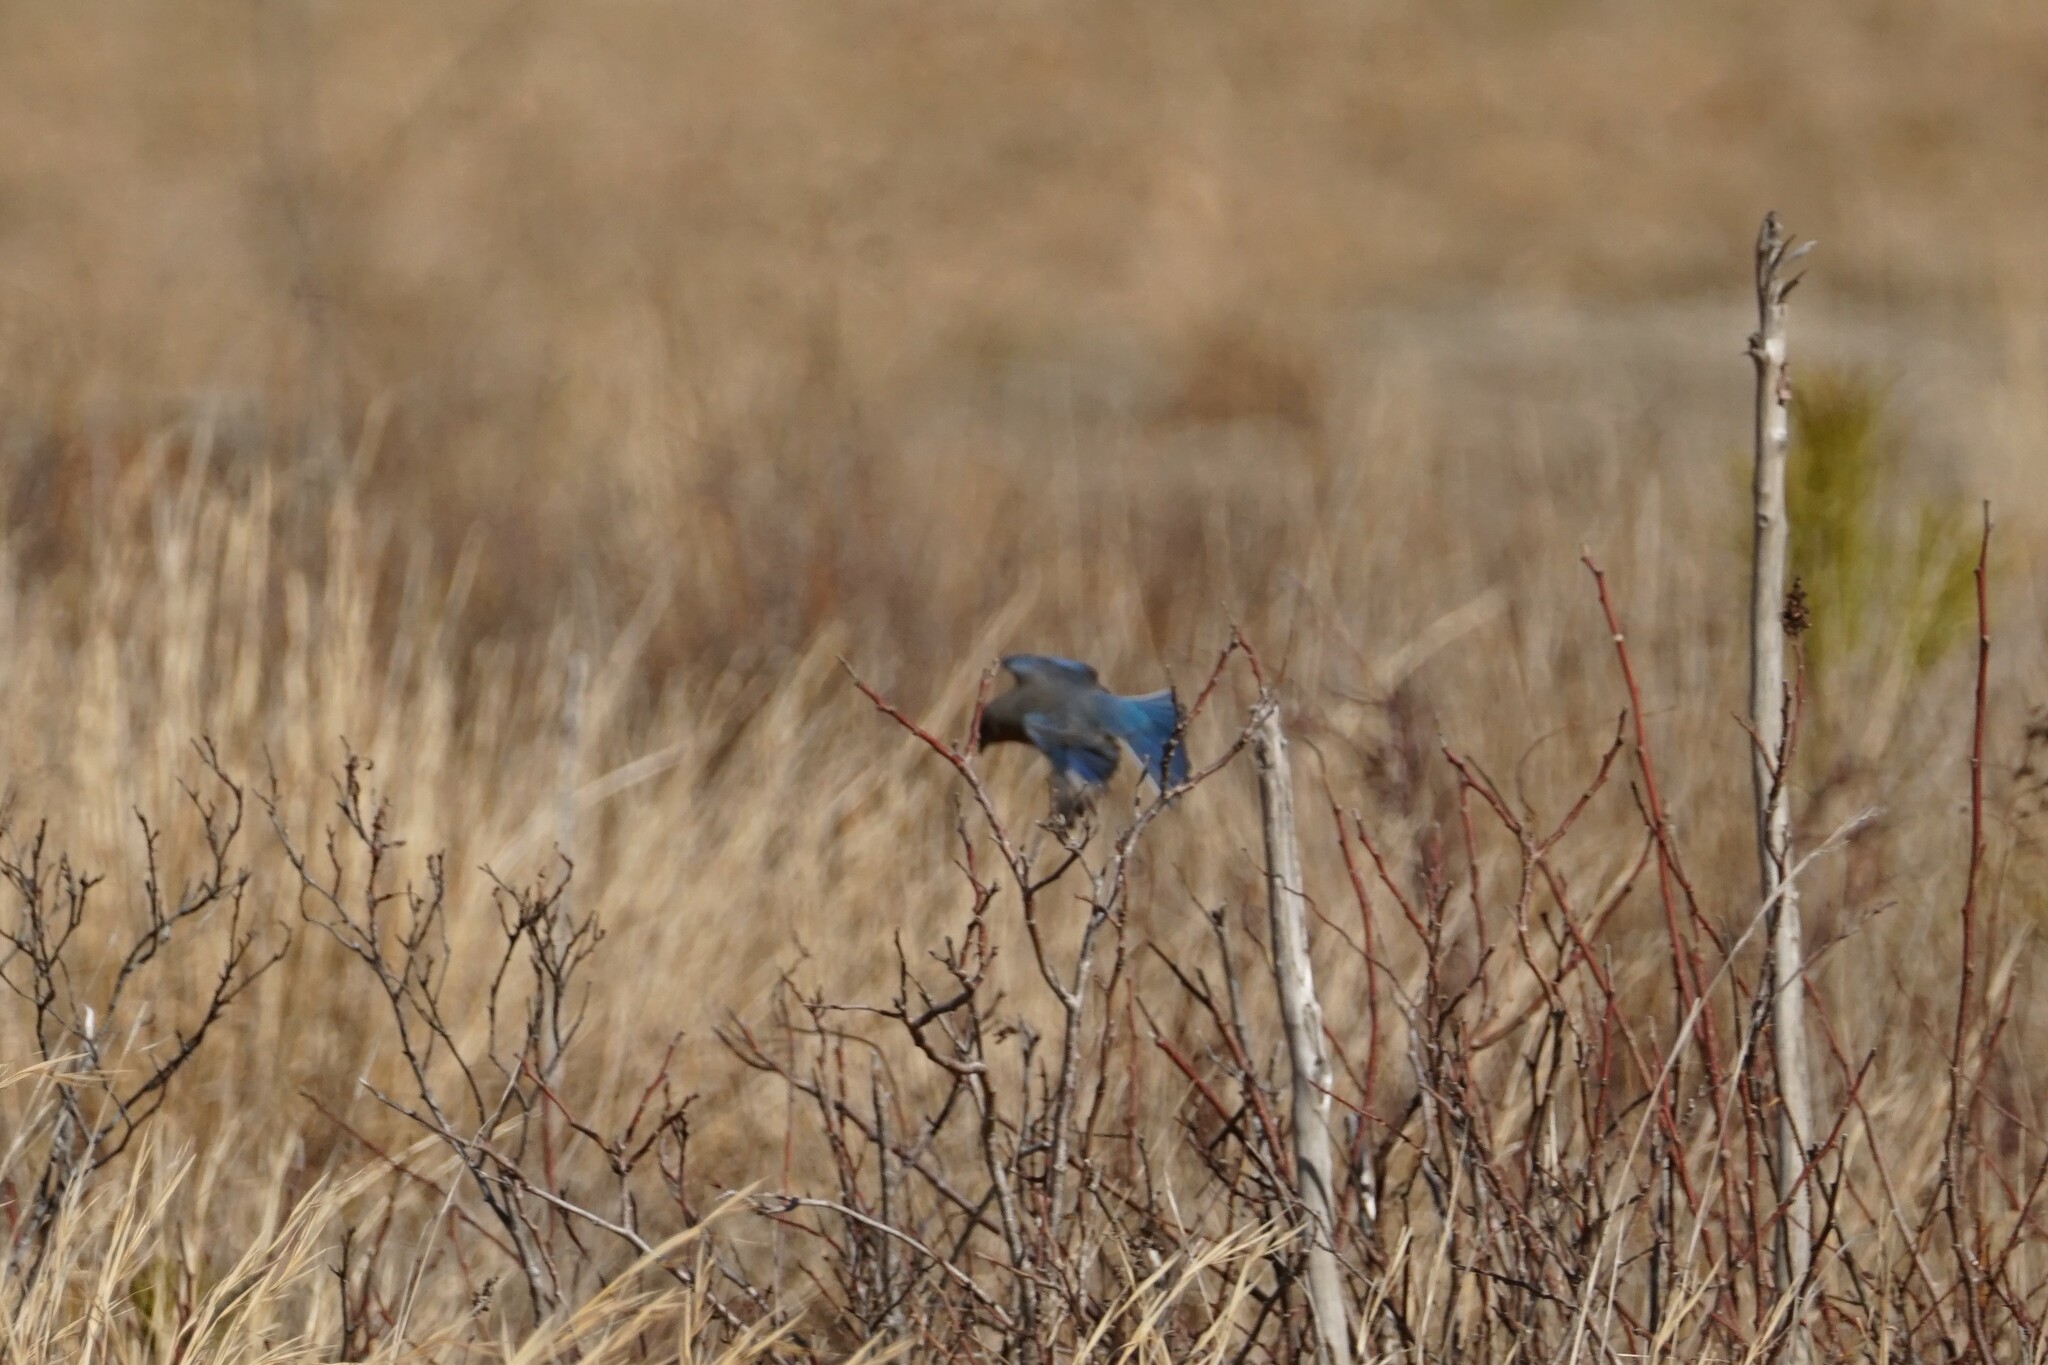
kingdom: Animalia
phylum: Chordata
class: Aves
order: Passeriformes
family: Turdidae
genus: Sialia
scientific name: Sialia sialis
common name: Eastern bluebird
